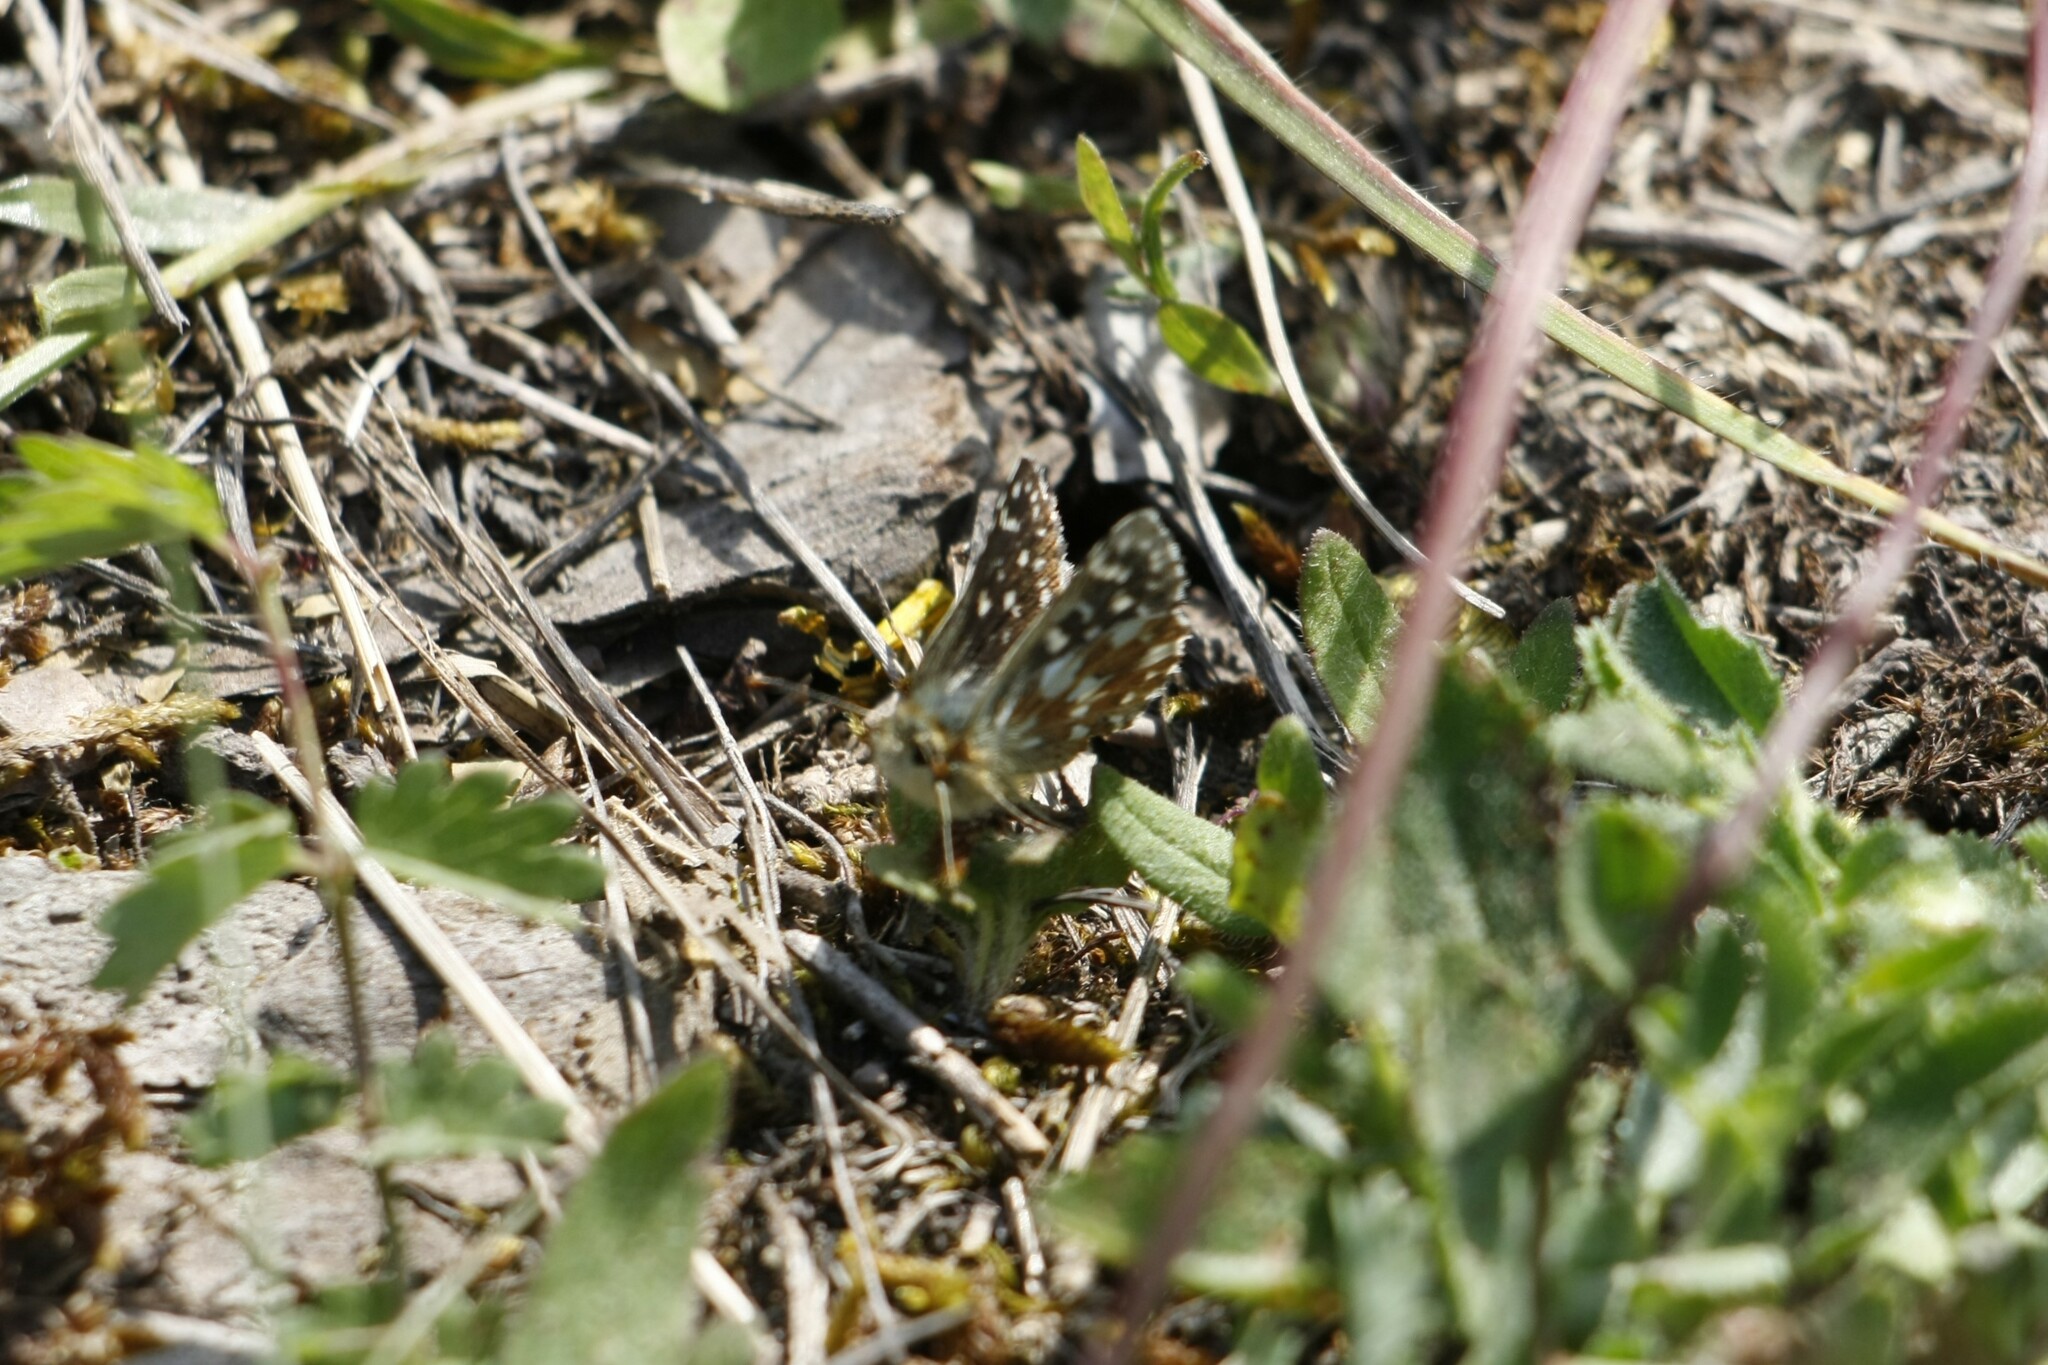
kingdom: Animalia
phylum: Arthropoda
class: Insecta
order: Lepidoptera
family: Hesperiidae
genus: Spialia
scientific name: Spialia sertorius
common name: Red underwing skipper
